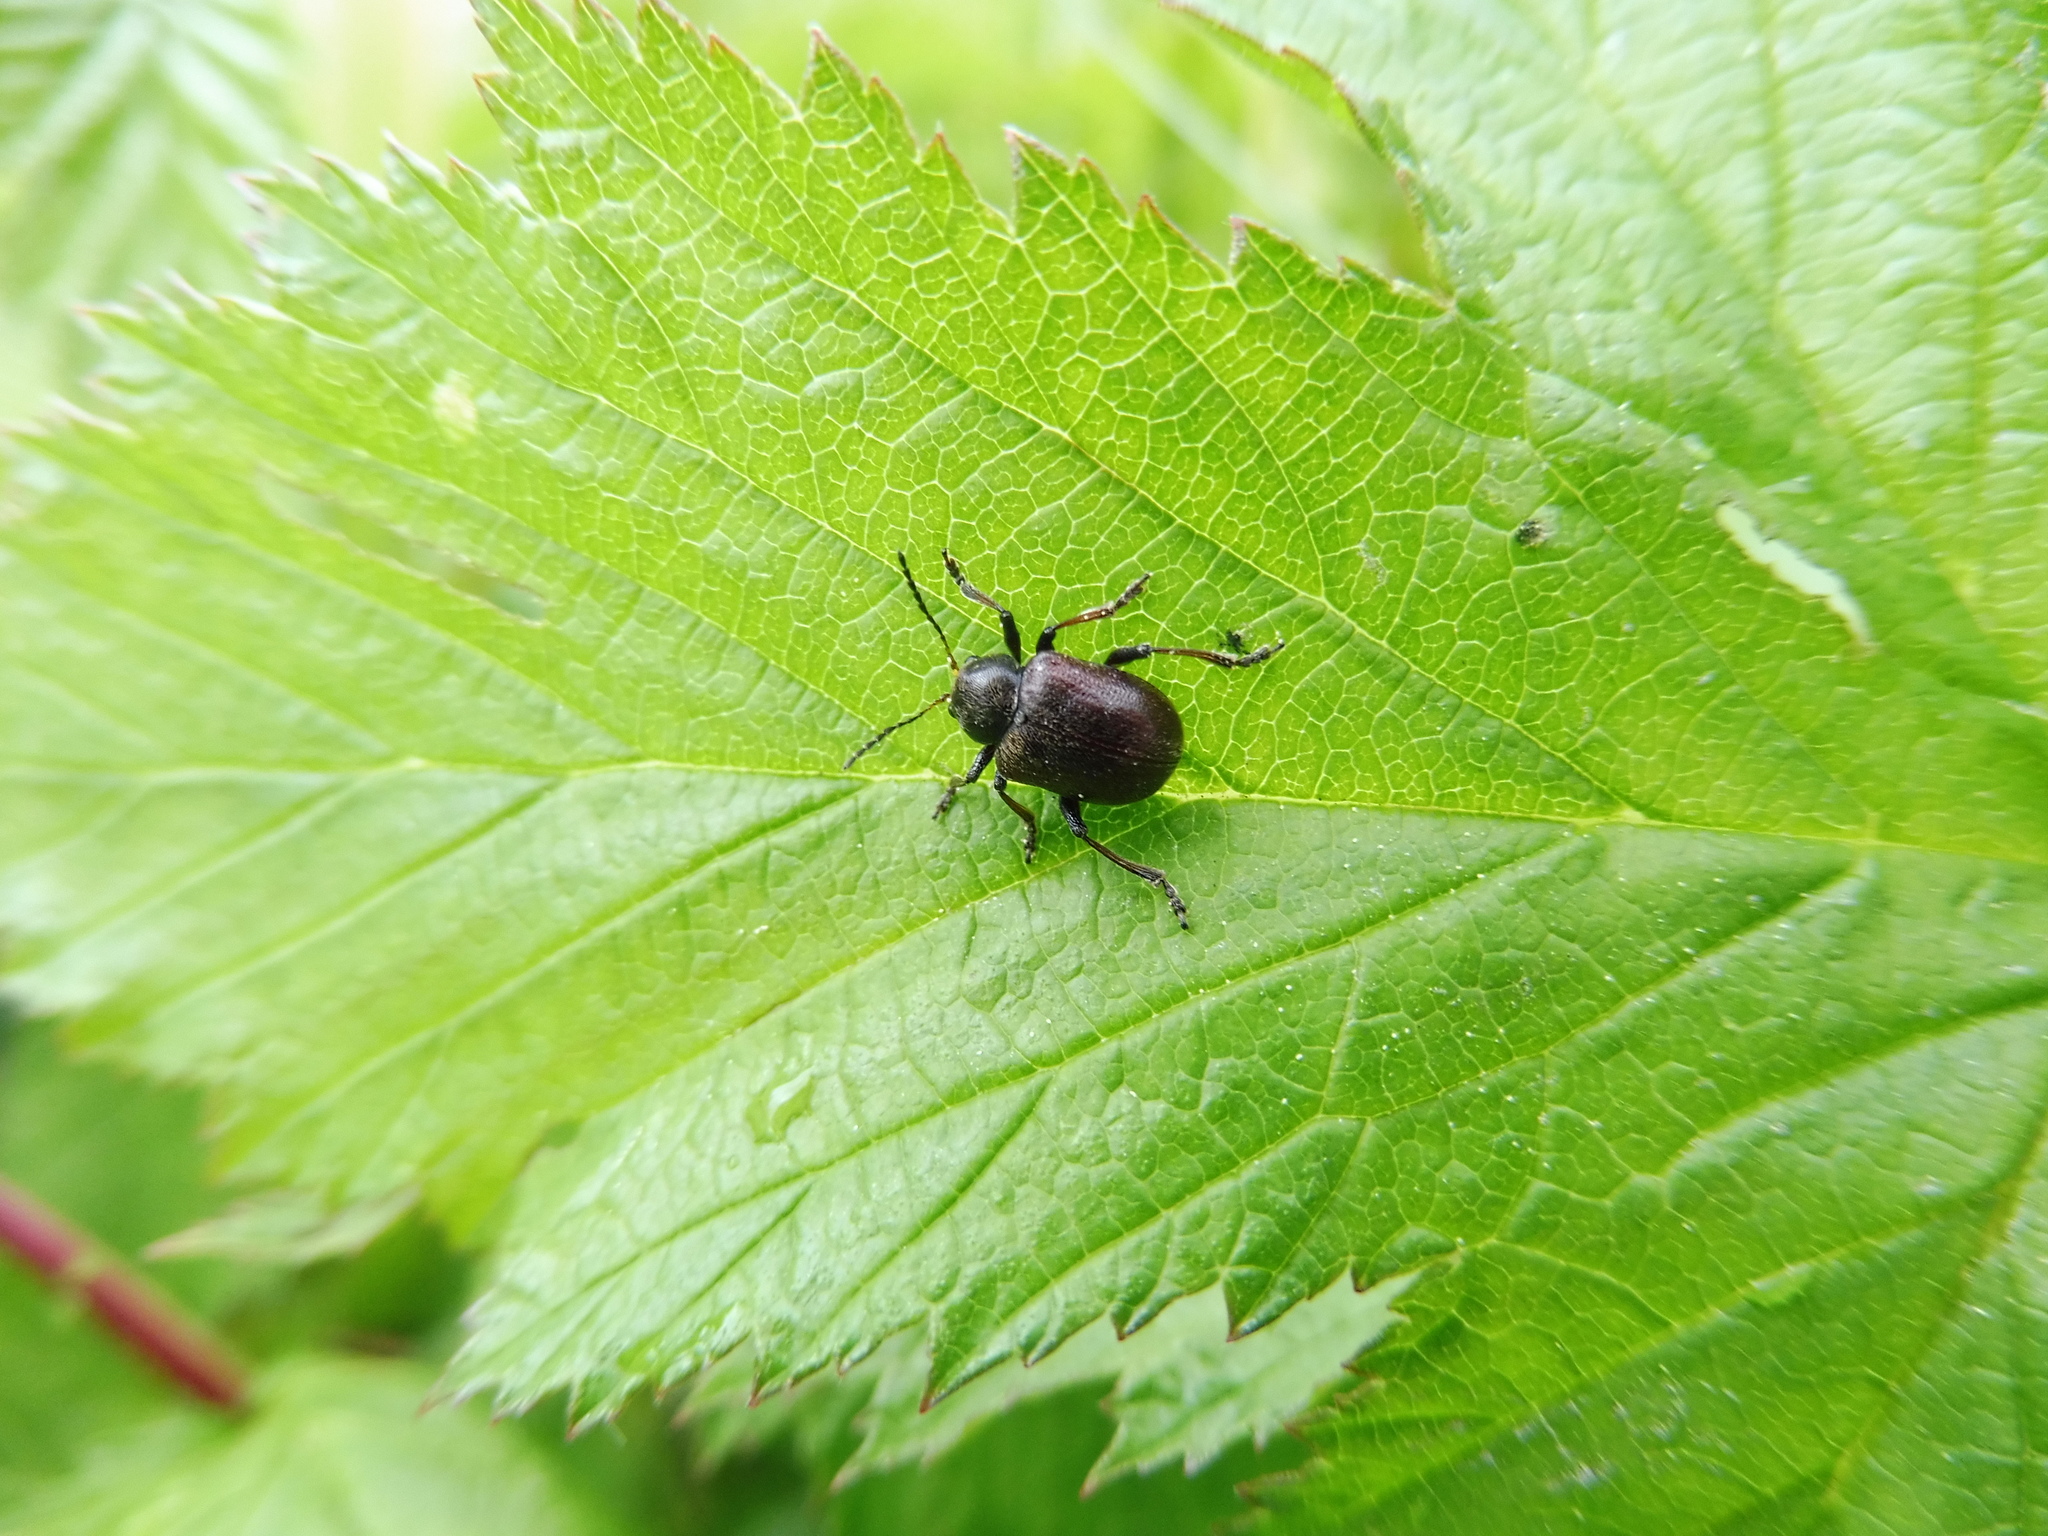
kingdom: Animalia
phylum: Arthropoda
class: Insecta
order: Coleoptera
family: Chrysomelidae
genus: Bromius
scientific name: Bromius obscurus
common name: Western grape rootworm
